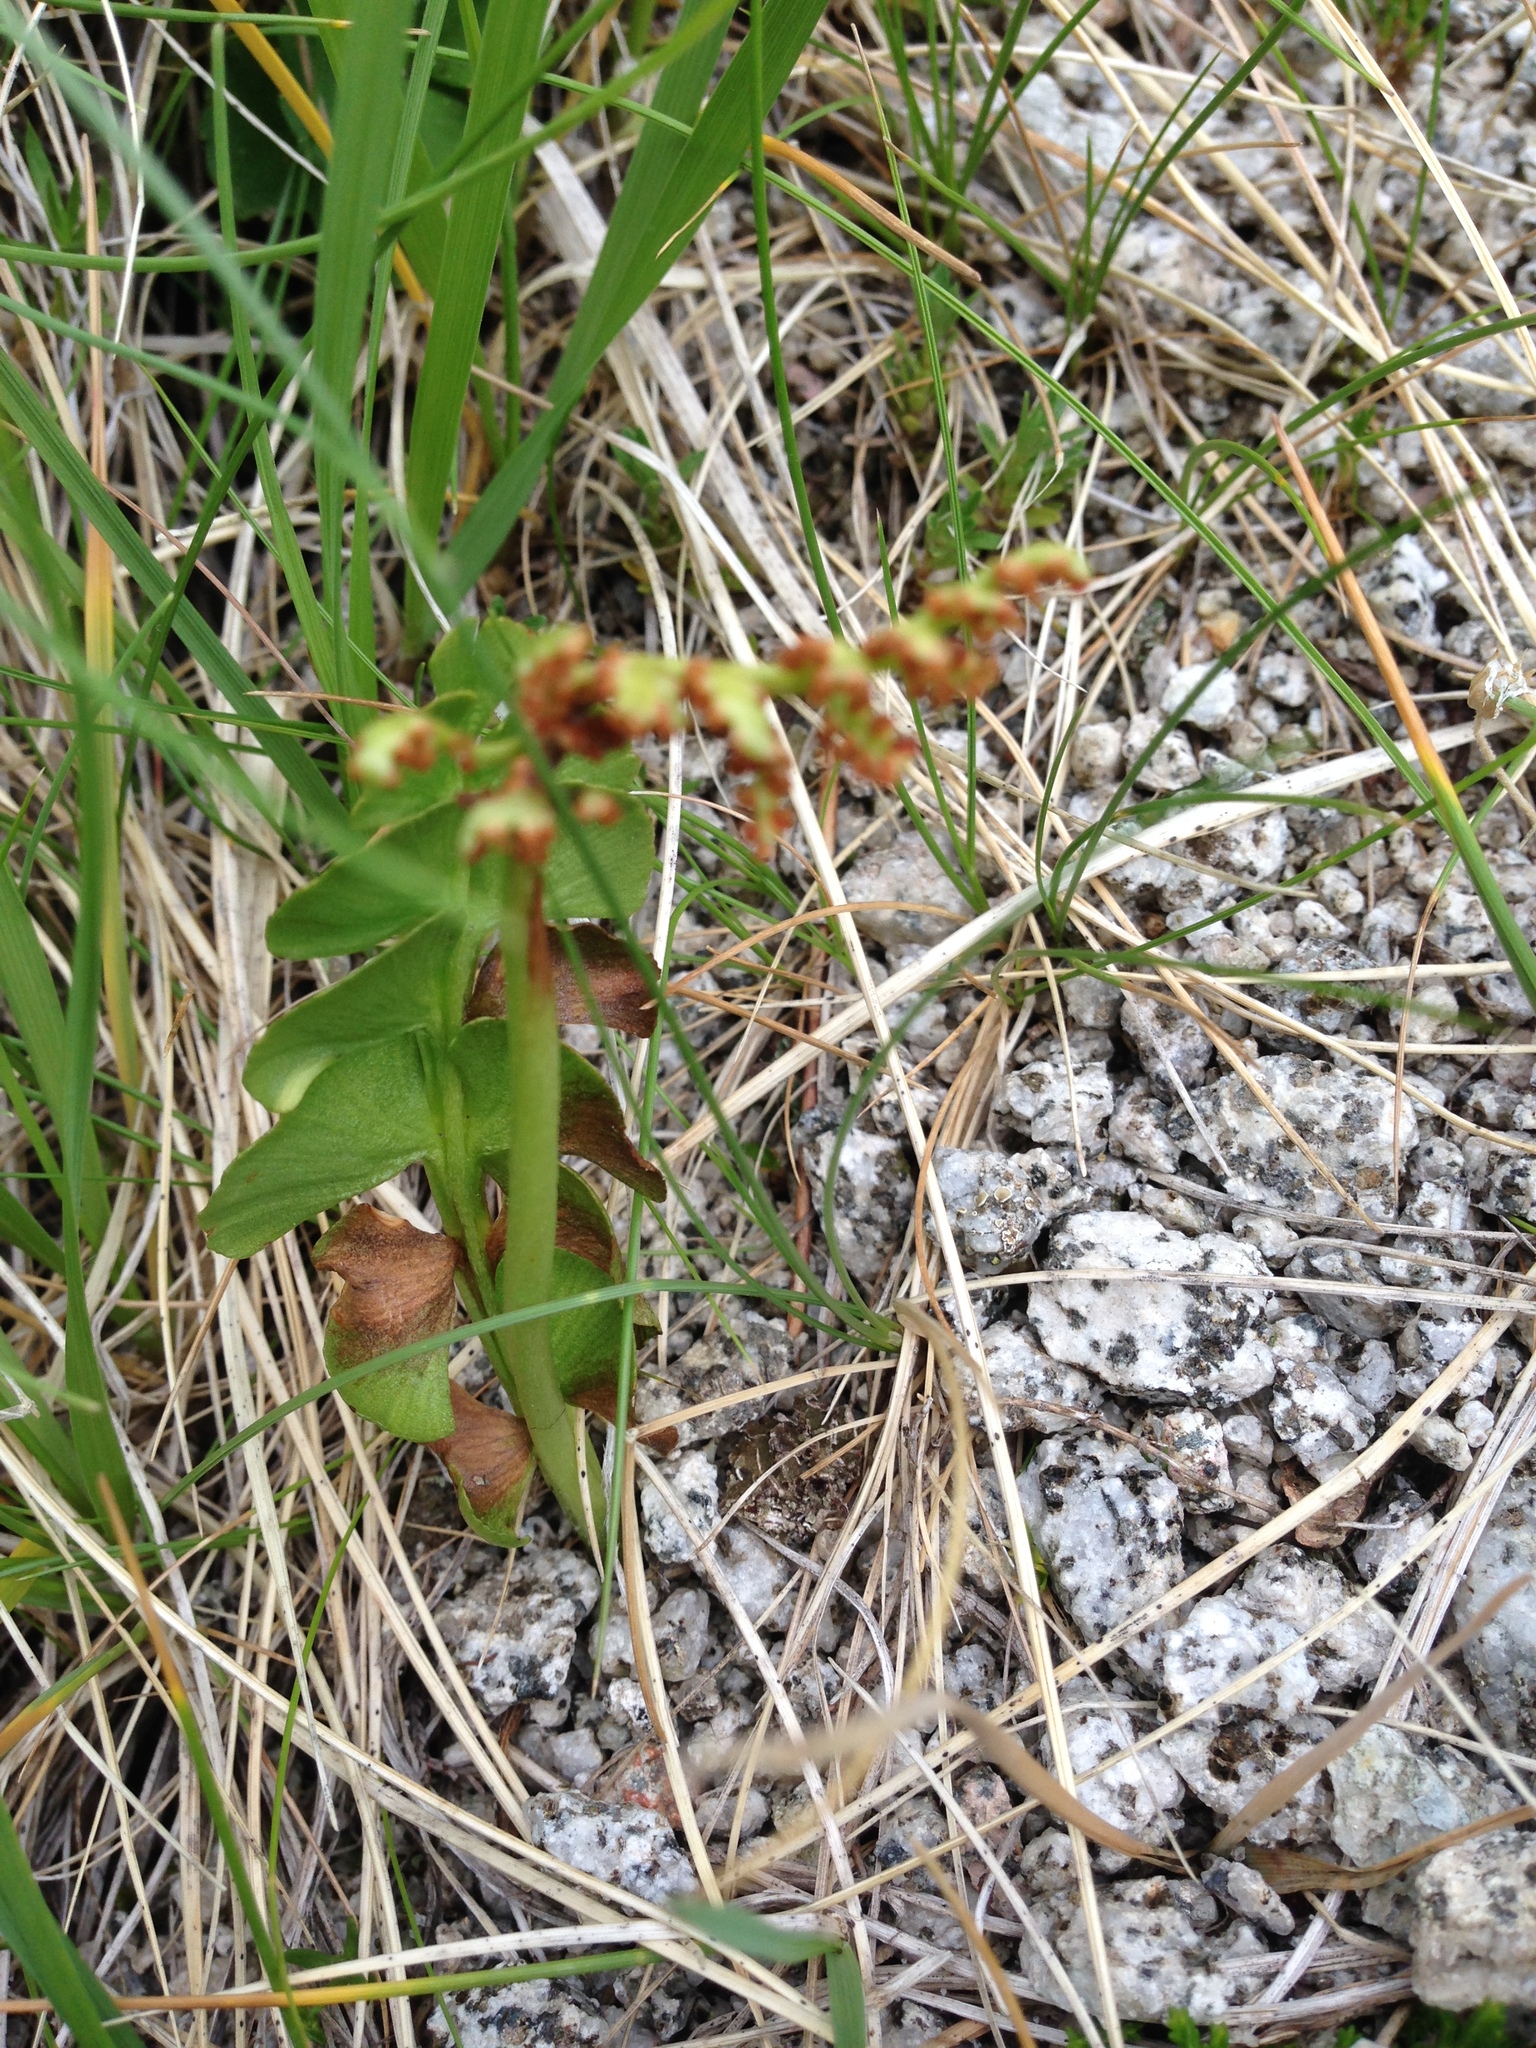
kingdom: Plantae
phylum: Tracheophyta
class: Polypodiopsida
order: Ophioglossales
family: Ophioglossaceae
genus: Botrychium
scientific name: Botrychium lunaria
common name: Moonwort
